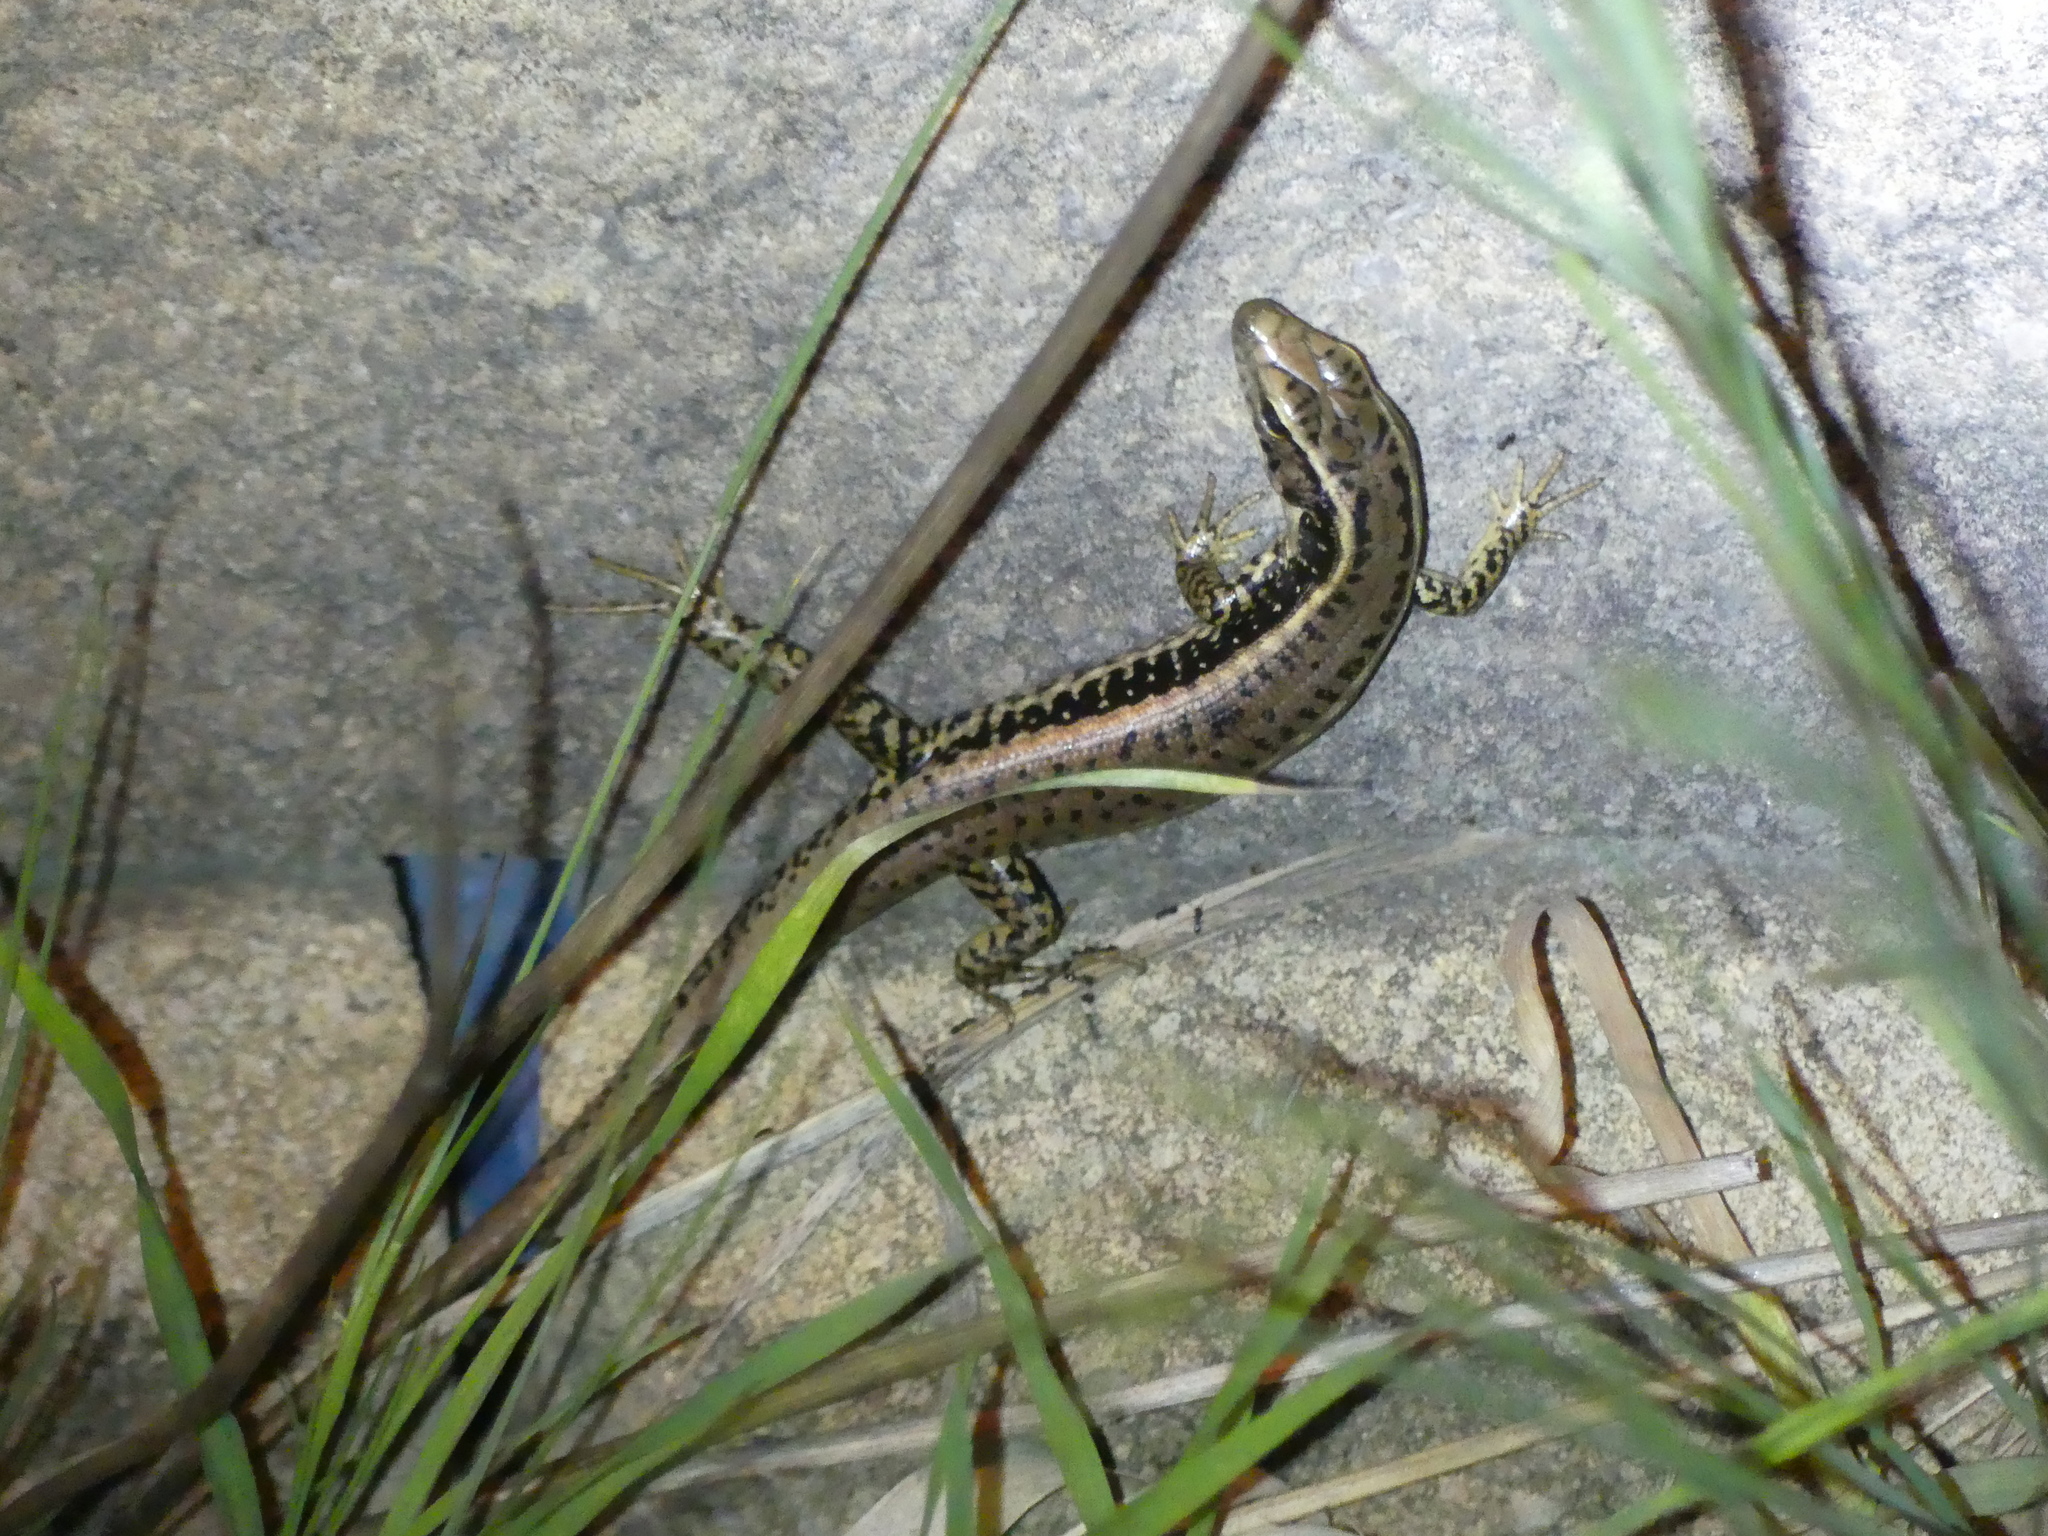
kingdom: Animalia
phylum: Chordata
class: Squamata
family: Scincidae
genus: Eulamprus
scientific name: Eulamprus quoyii
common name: Eastern water skink
